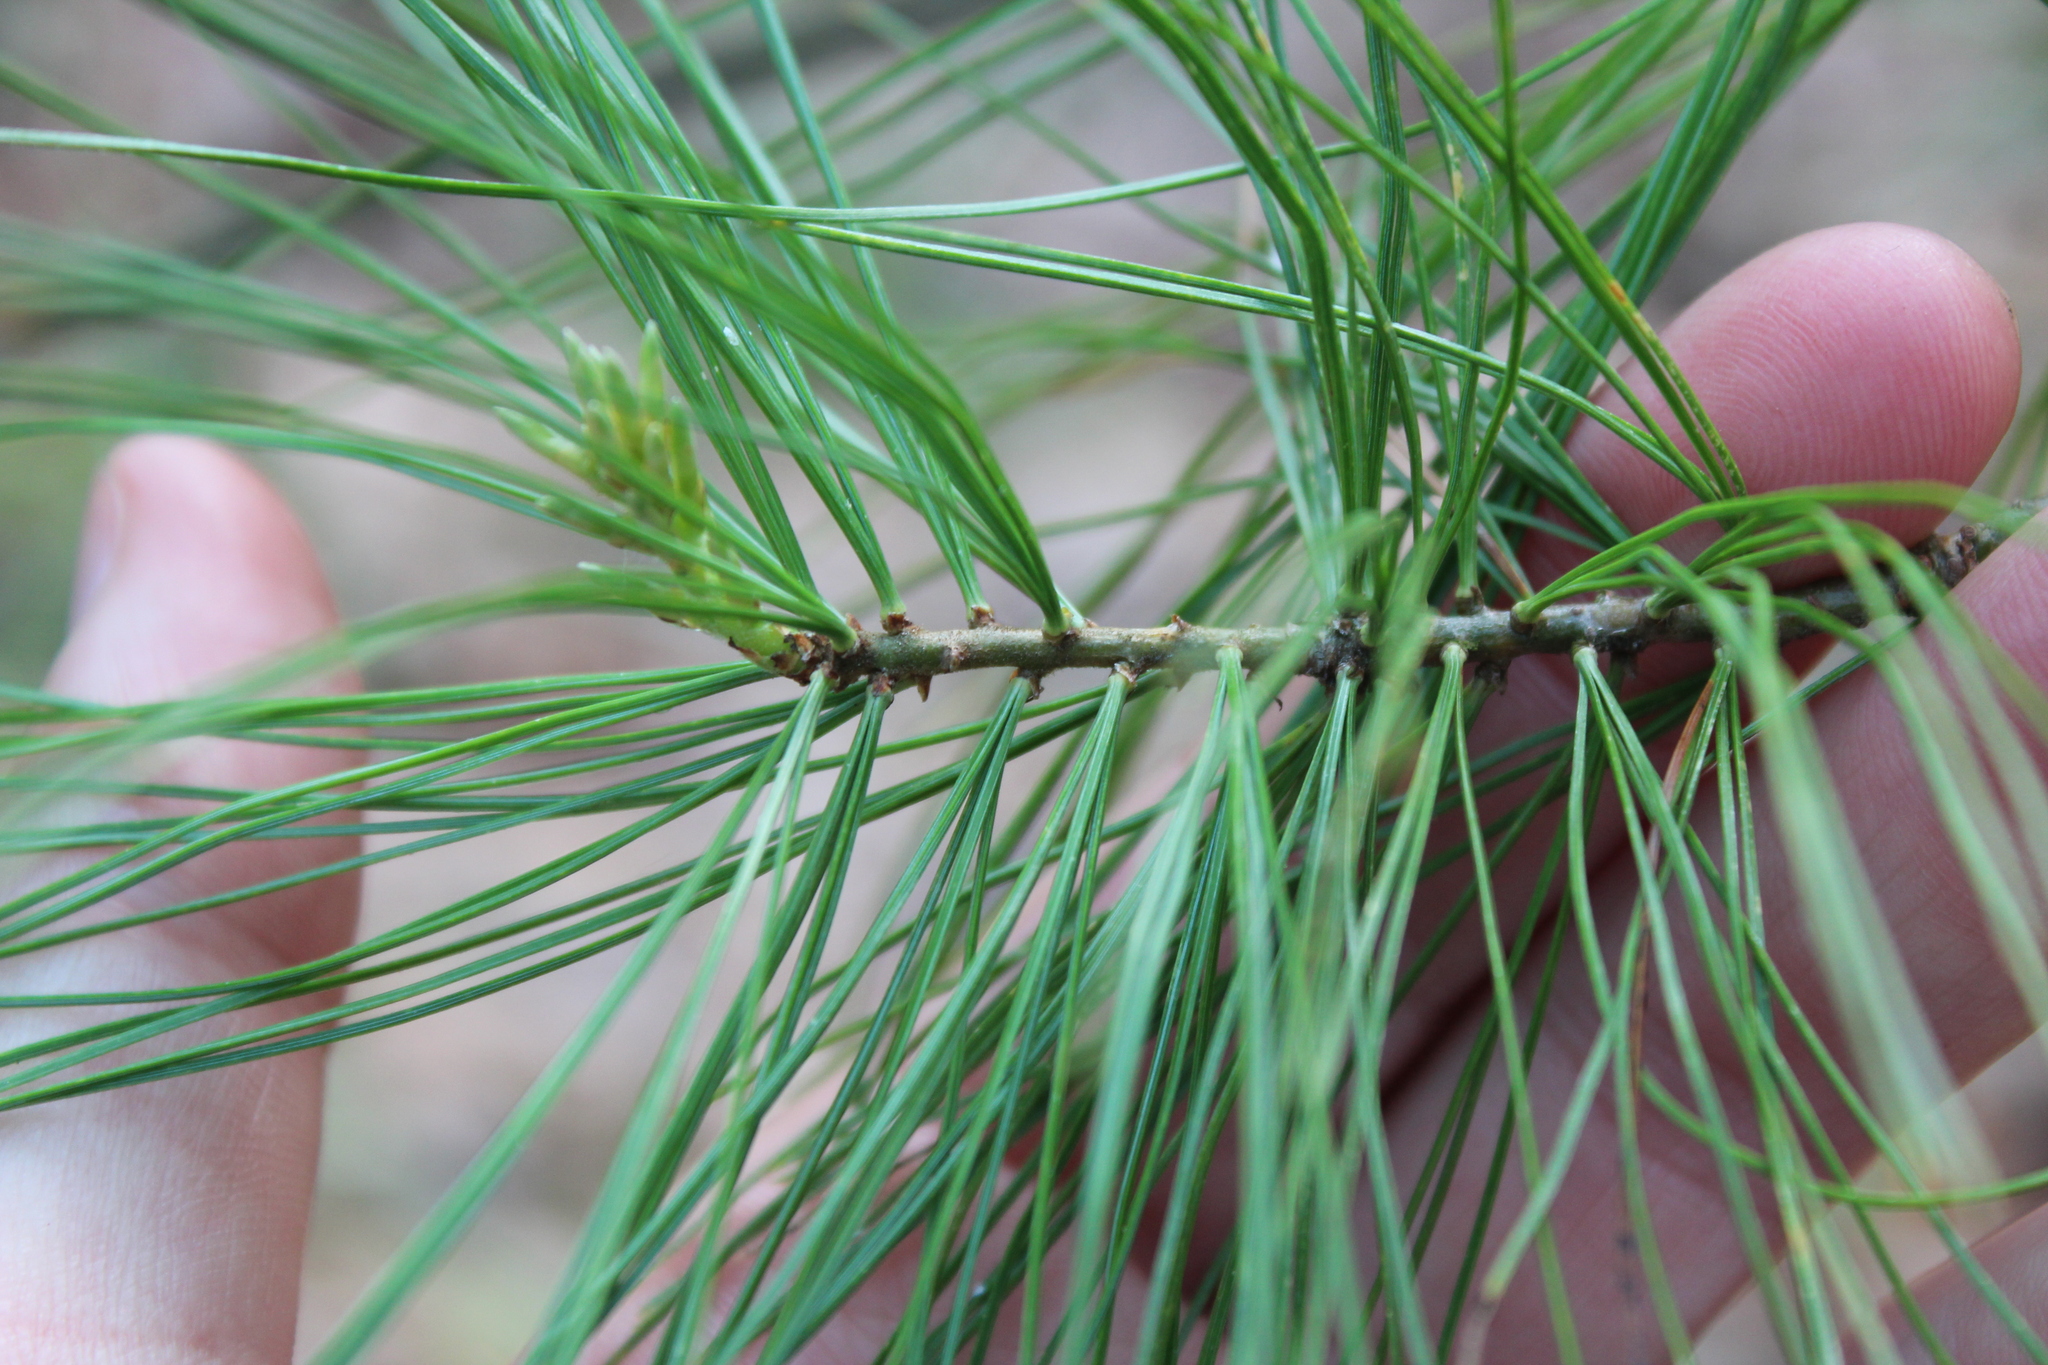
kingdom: Plantae
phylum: Tracheophyta
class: Pinopsida
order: Pinales
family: Pinaceae
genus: Pinus
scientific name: Pinus strobus
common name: Weymouth pine
